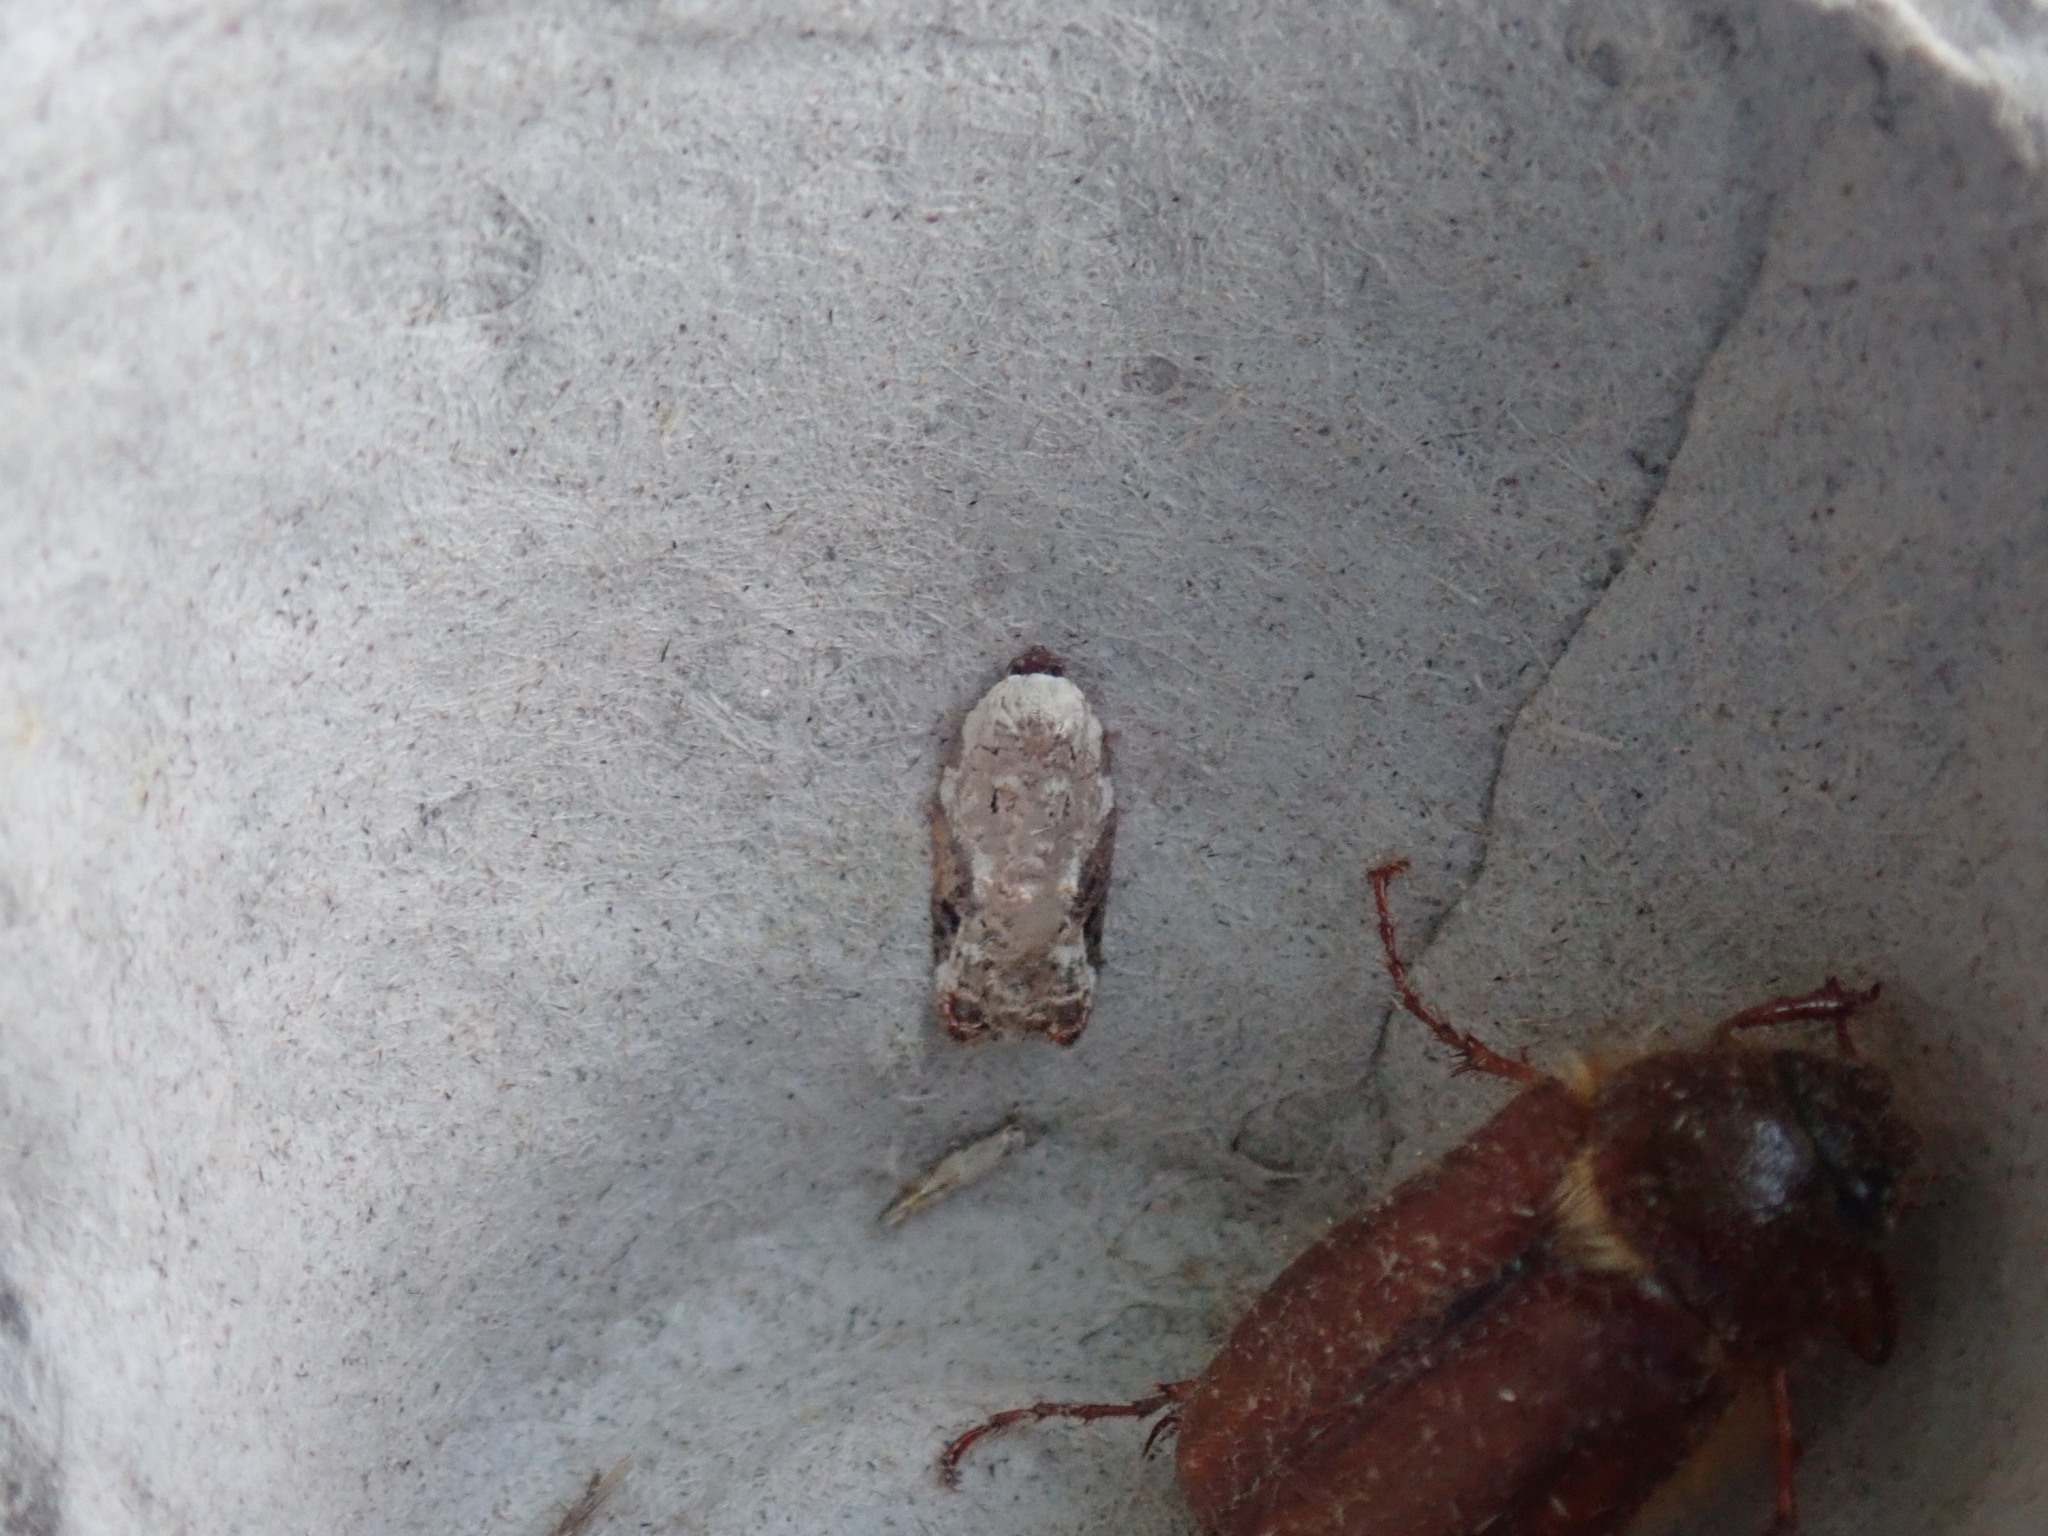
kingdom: Animalia
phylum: Arthropoda
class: Insecta
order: Lepidoptera
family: Tortricidae
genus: Acleris
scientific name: Acleris nivisellana
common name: Snowy-shouldered acleris moth
